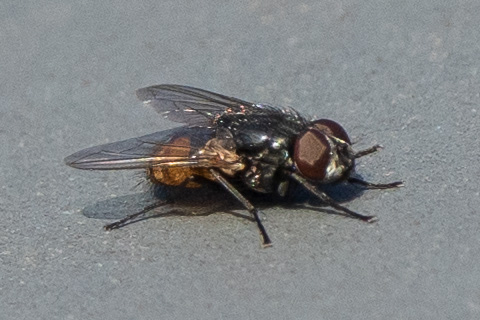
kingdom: Animalia
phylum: Arthropoda
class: Insecta
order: Diptera
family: Muscidae
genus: Musca
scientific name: Musca autumnalis
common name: Face fly
